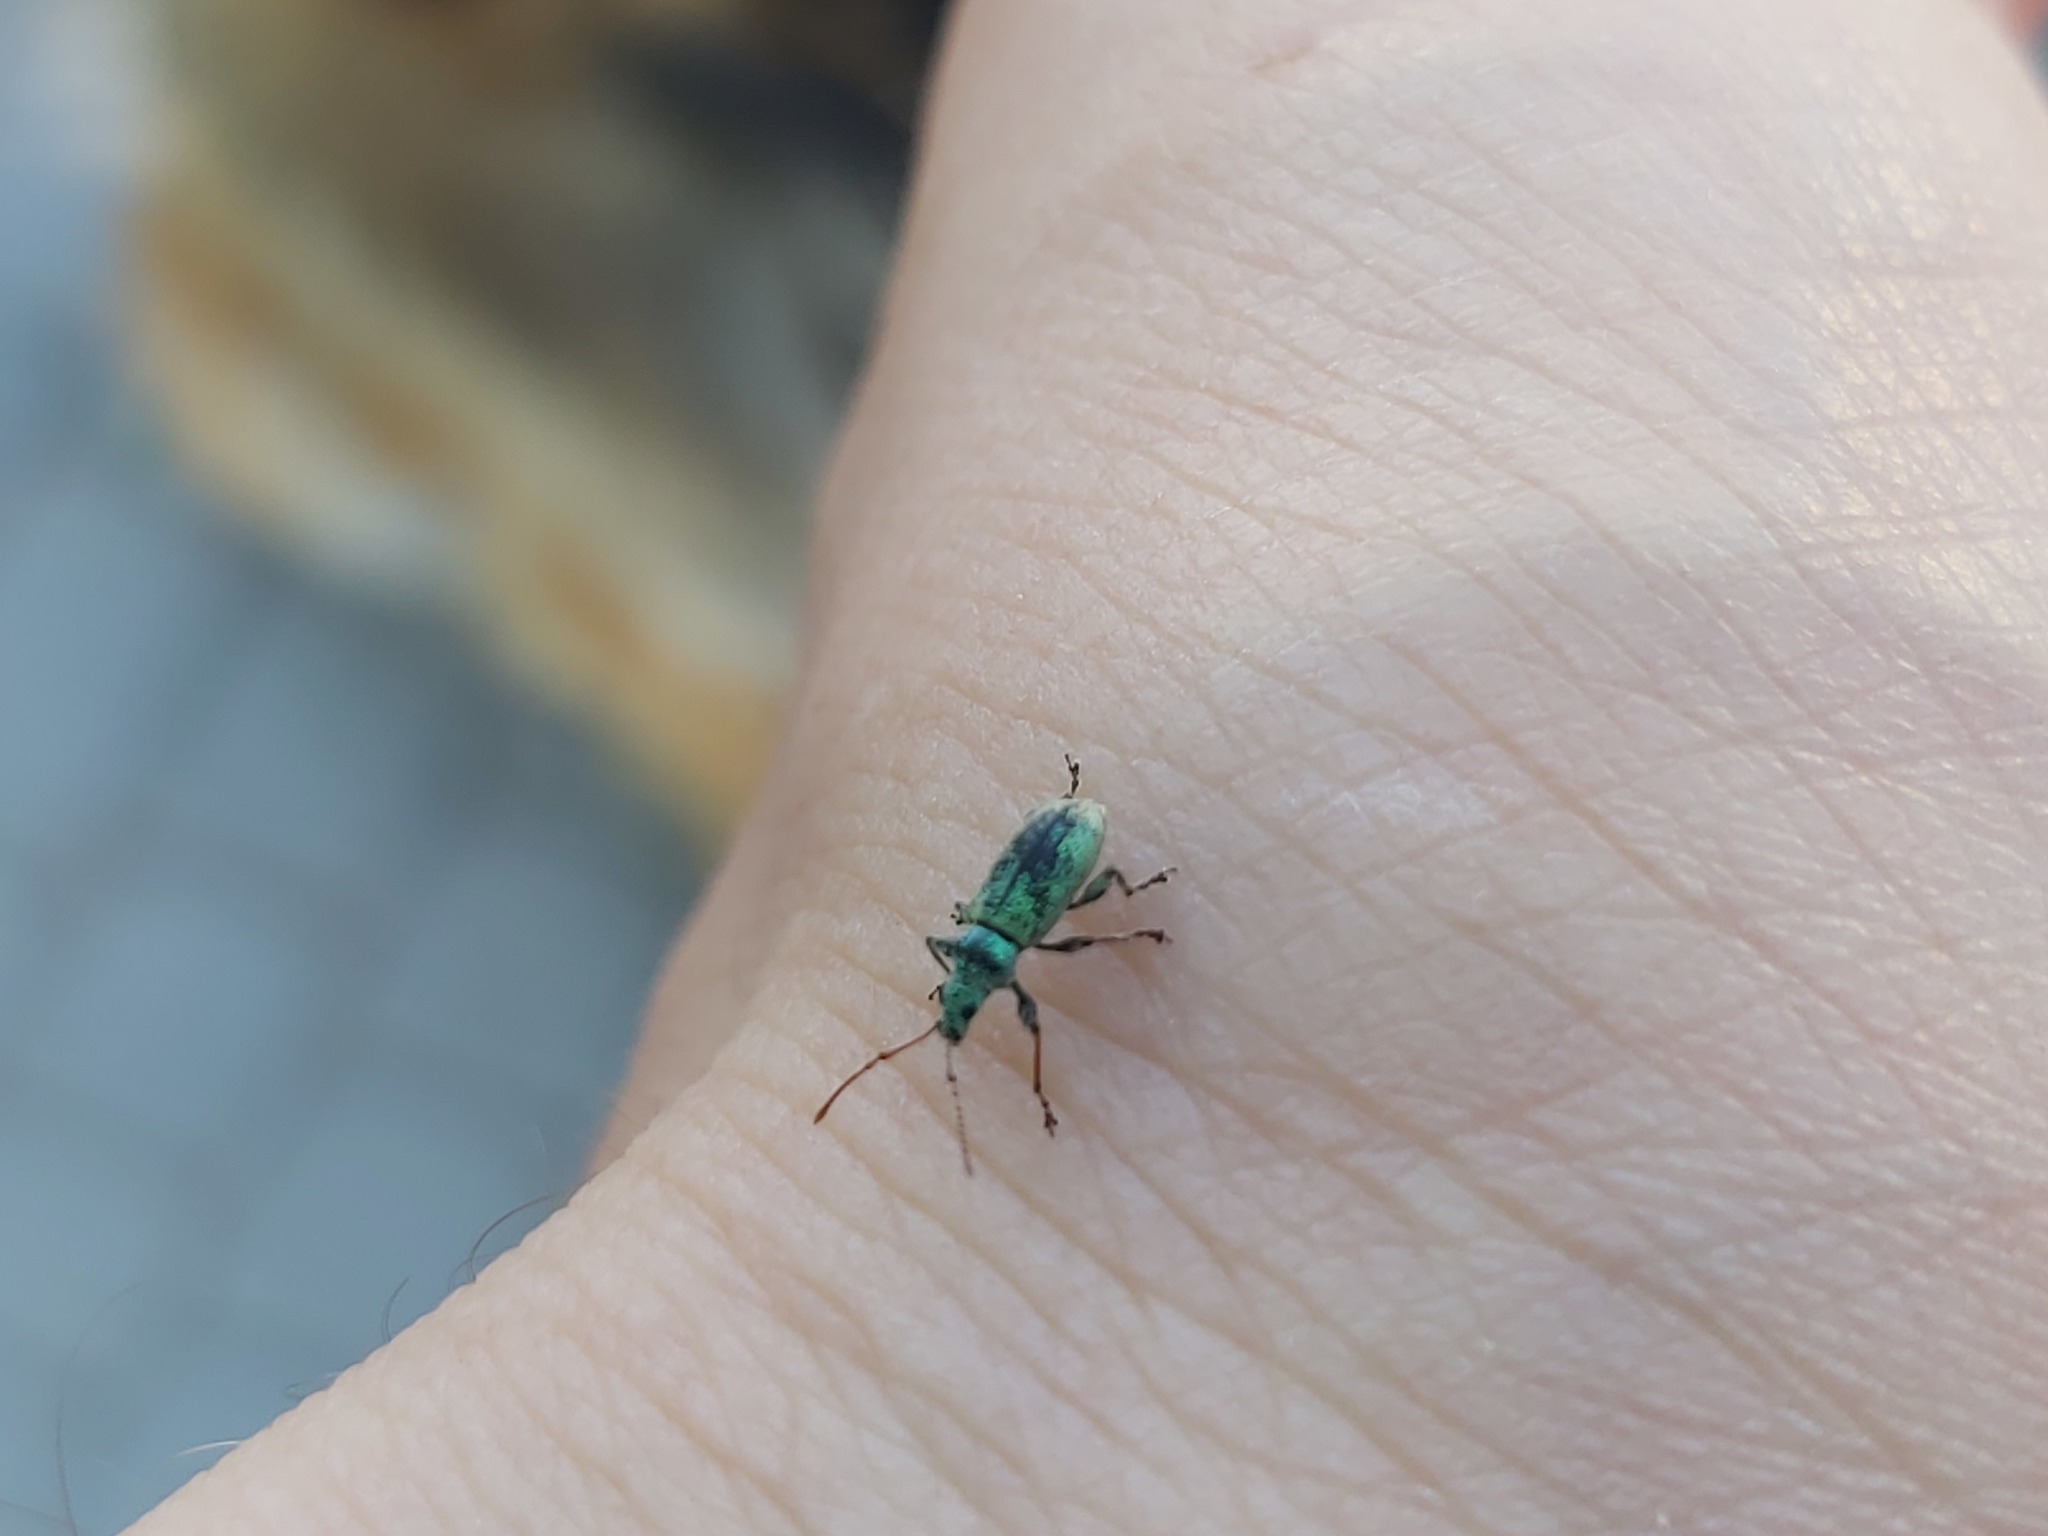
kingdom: Animalia
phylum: Arthropoda
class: Insecta
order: Coleoptera
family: Curculionidae
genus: Phyllobius
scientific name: Phyllobius argentatus
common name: Silver-green leaf weevil
